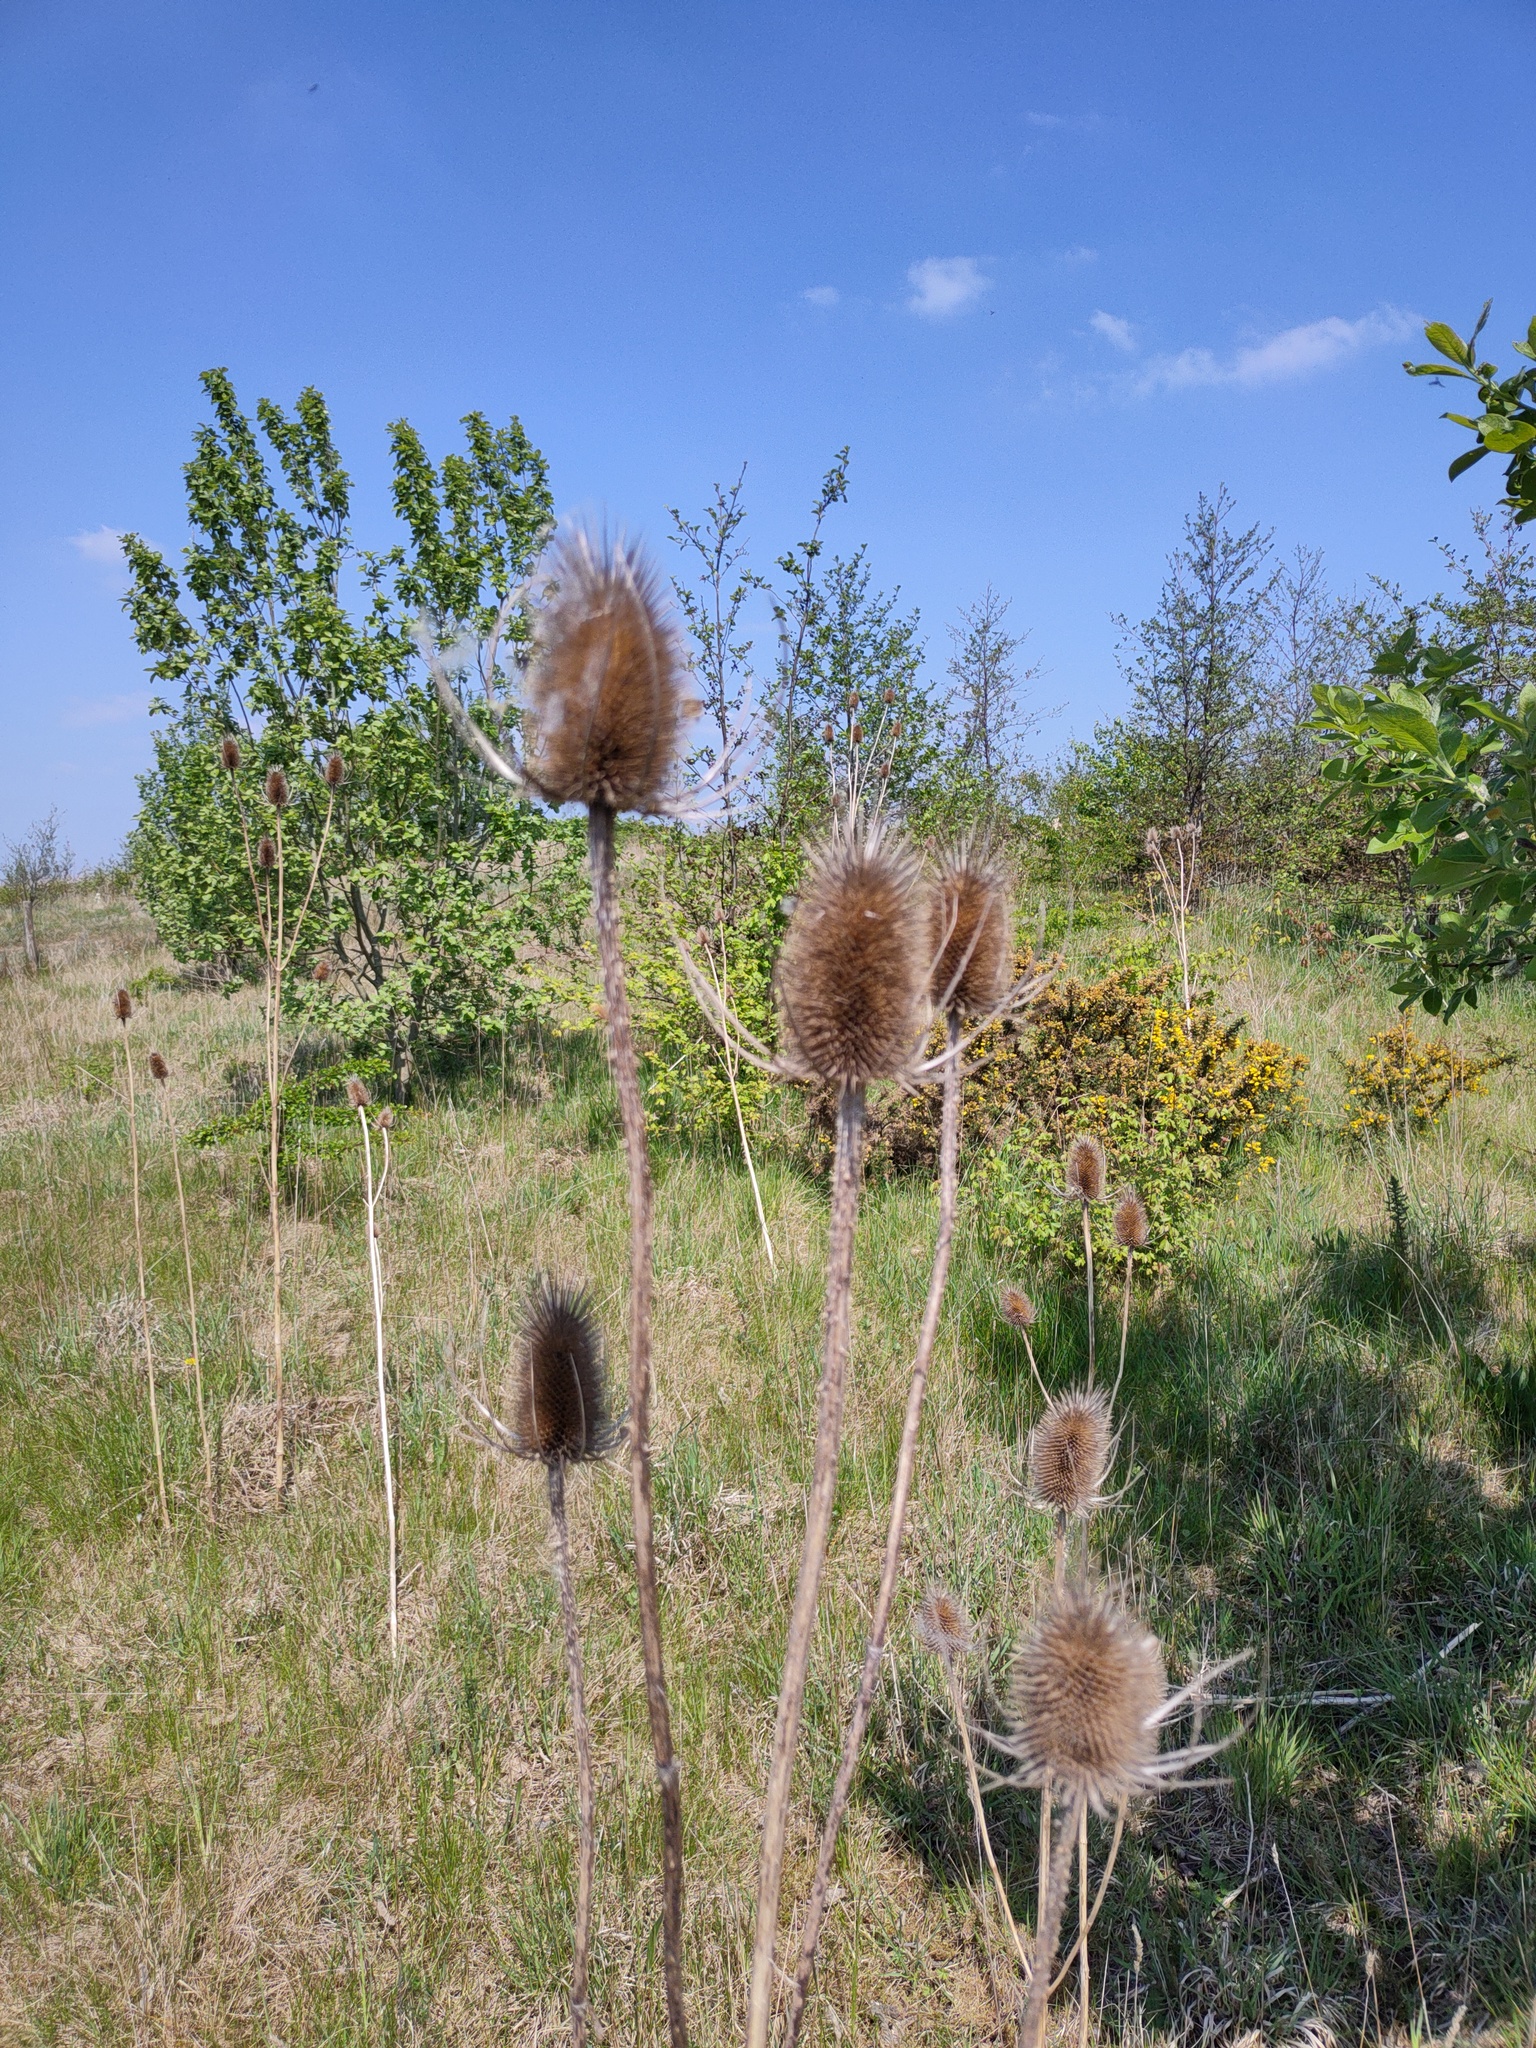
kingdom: Plantae
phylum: Tracheophyta
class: Magnoliopsida
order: Dipsacales
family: Caprifoliaceae
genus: Dipsacus
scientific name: Dipsacus fullonum
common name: Teasel
